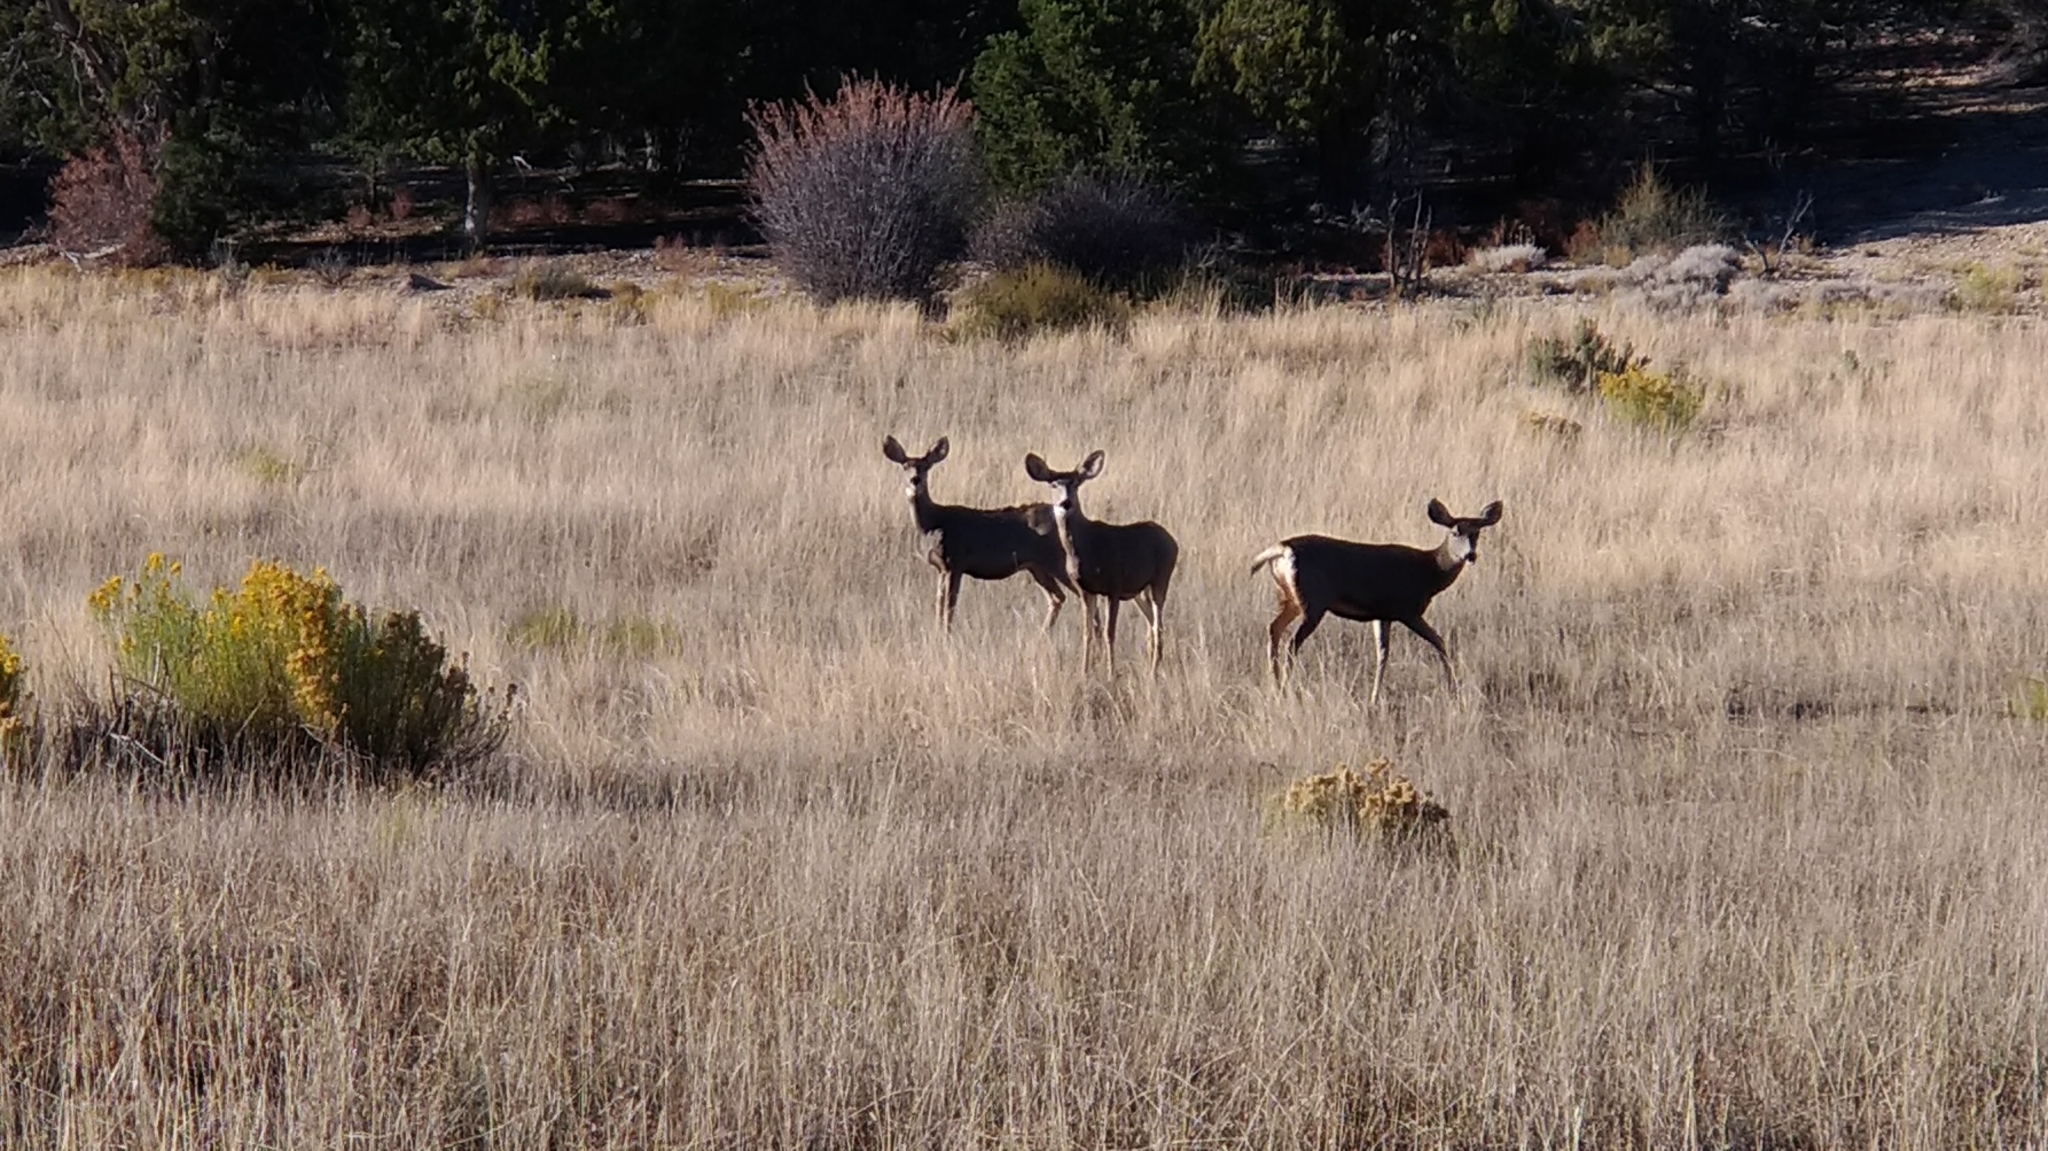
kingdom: Animalia
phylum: Chordata
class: Mammalia
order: Artiodactyla
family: Cervidae
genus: Odocoileus
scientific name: Odocoileus hemionus
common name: Mule deer
